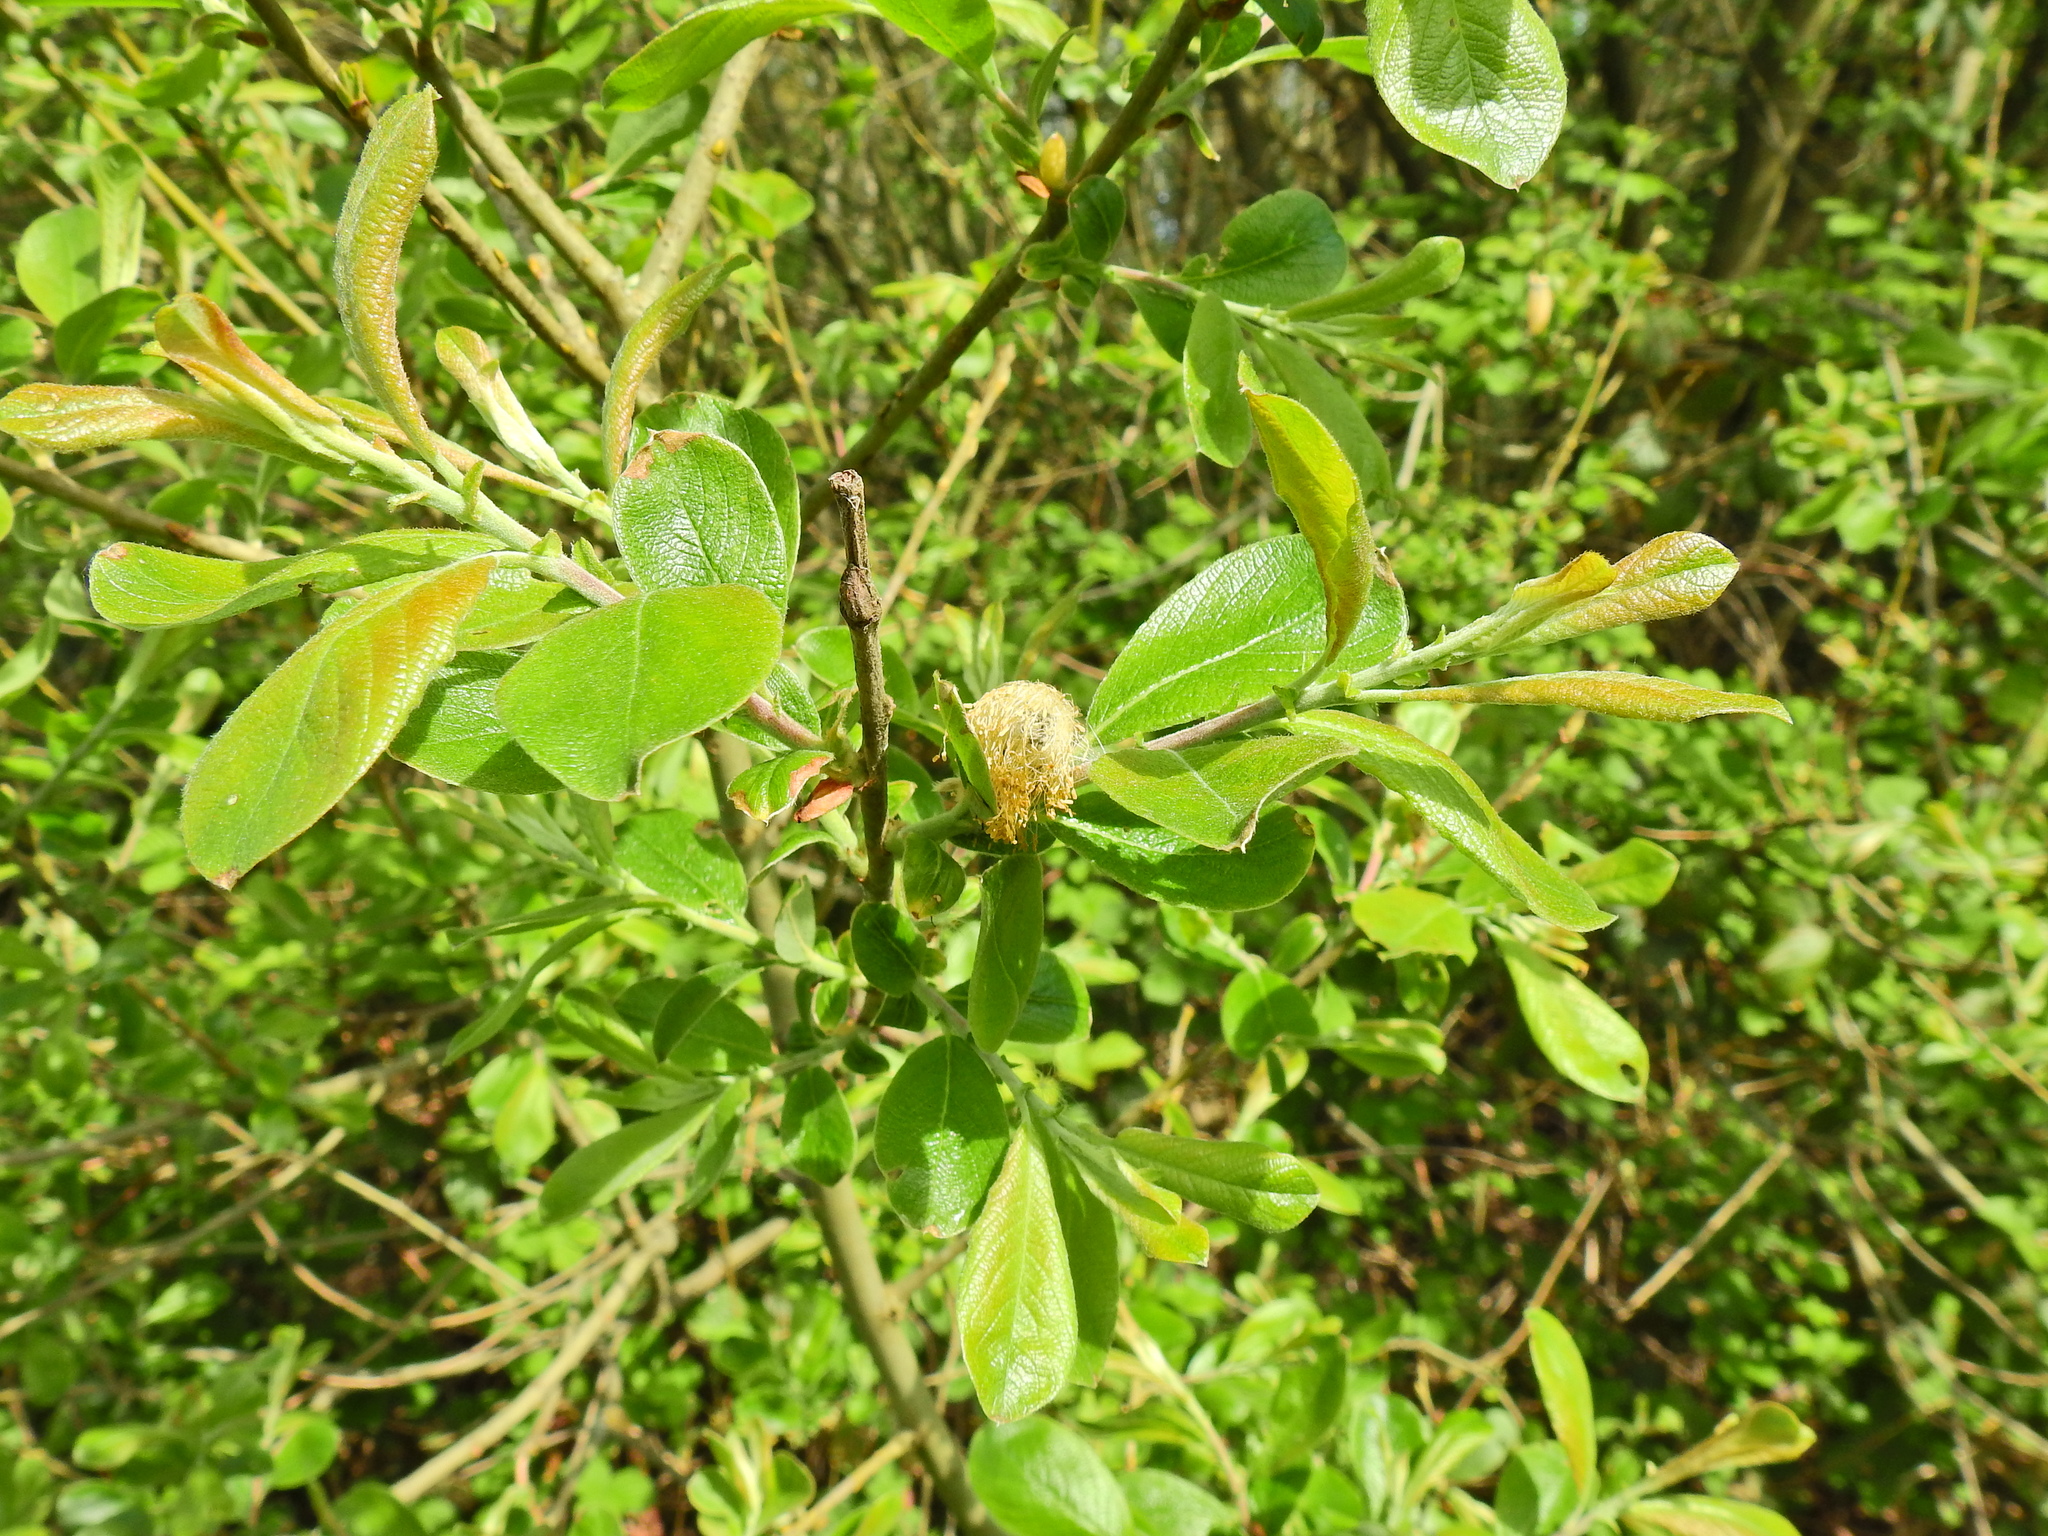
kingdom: Plantae
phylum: Tracheophyta
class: Magnoliopsida
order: Malpighiales
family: Salicaceae
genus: Salix
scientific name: Salix cinerea
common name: Common sallow
